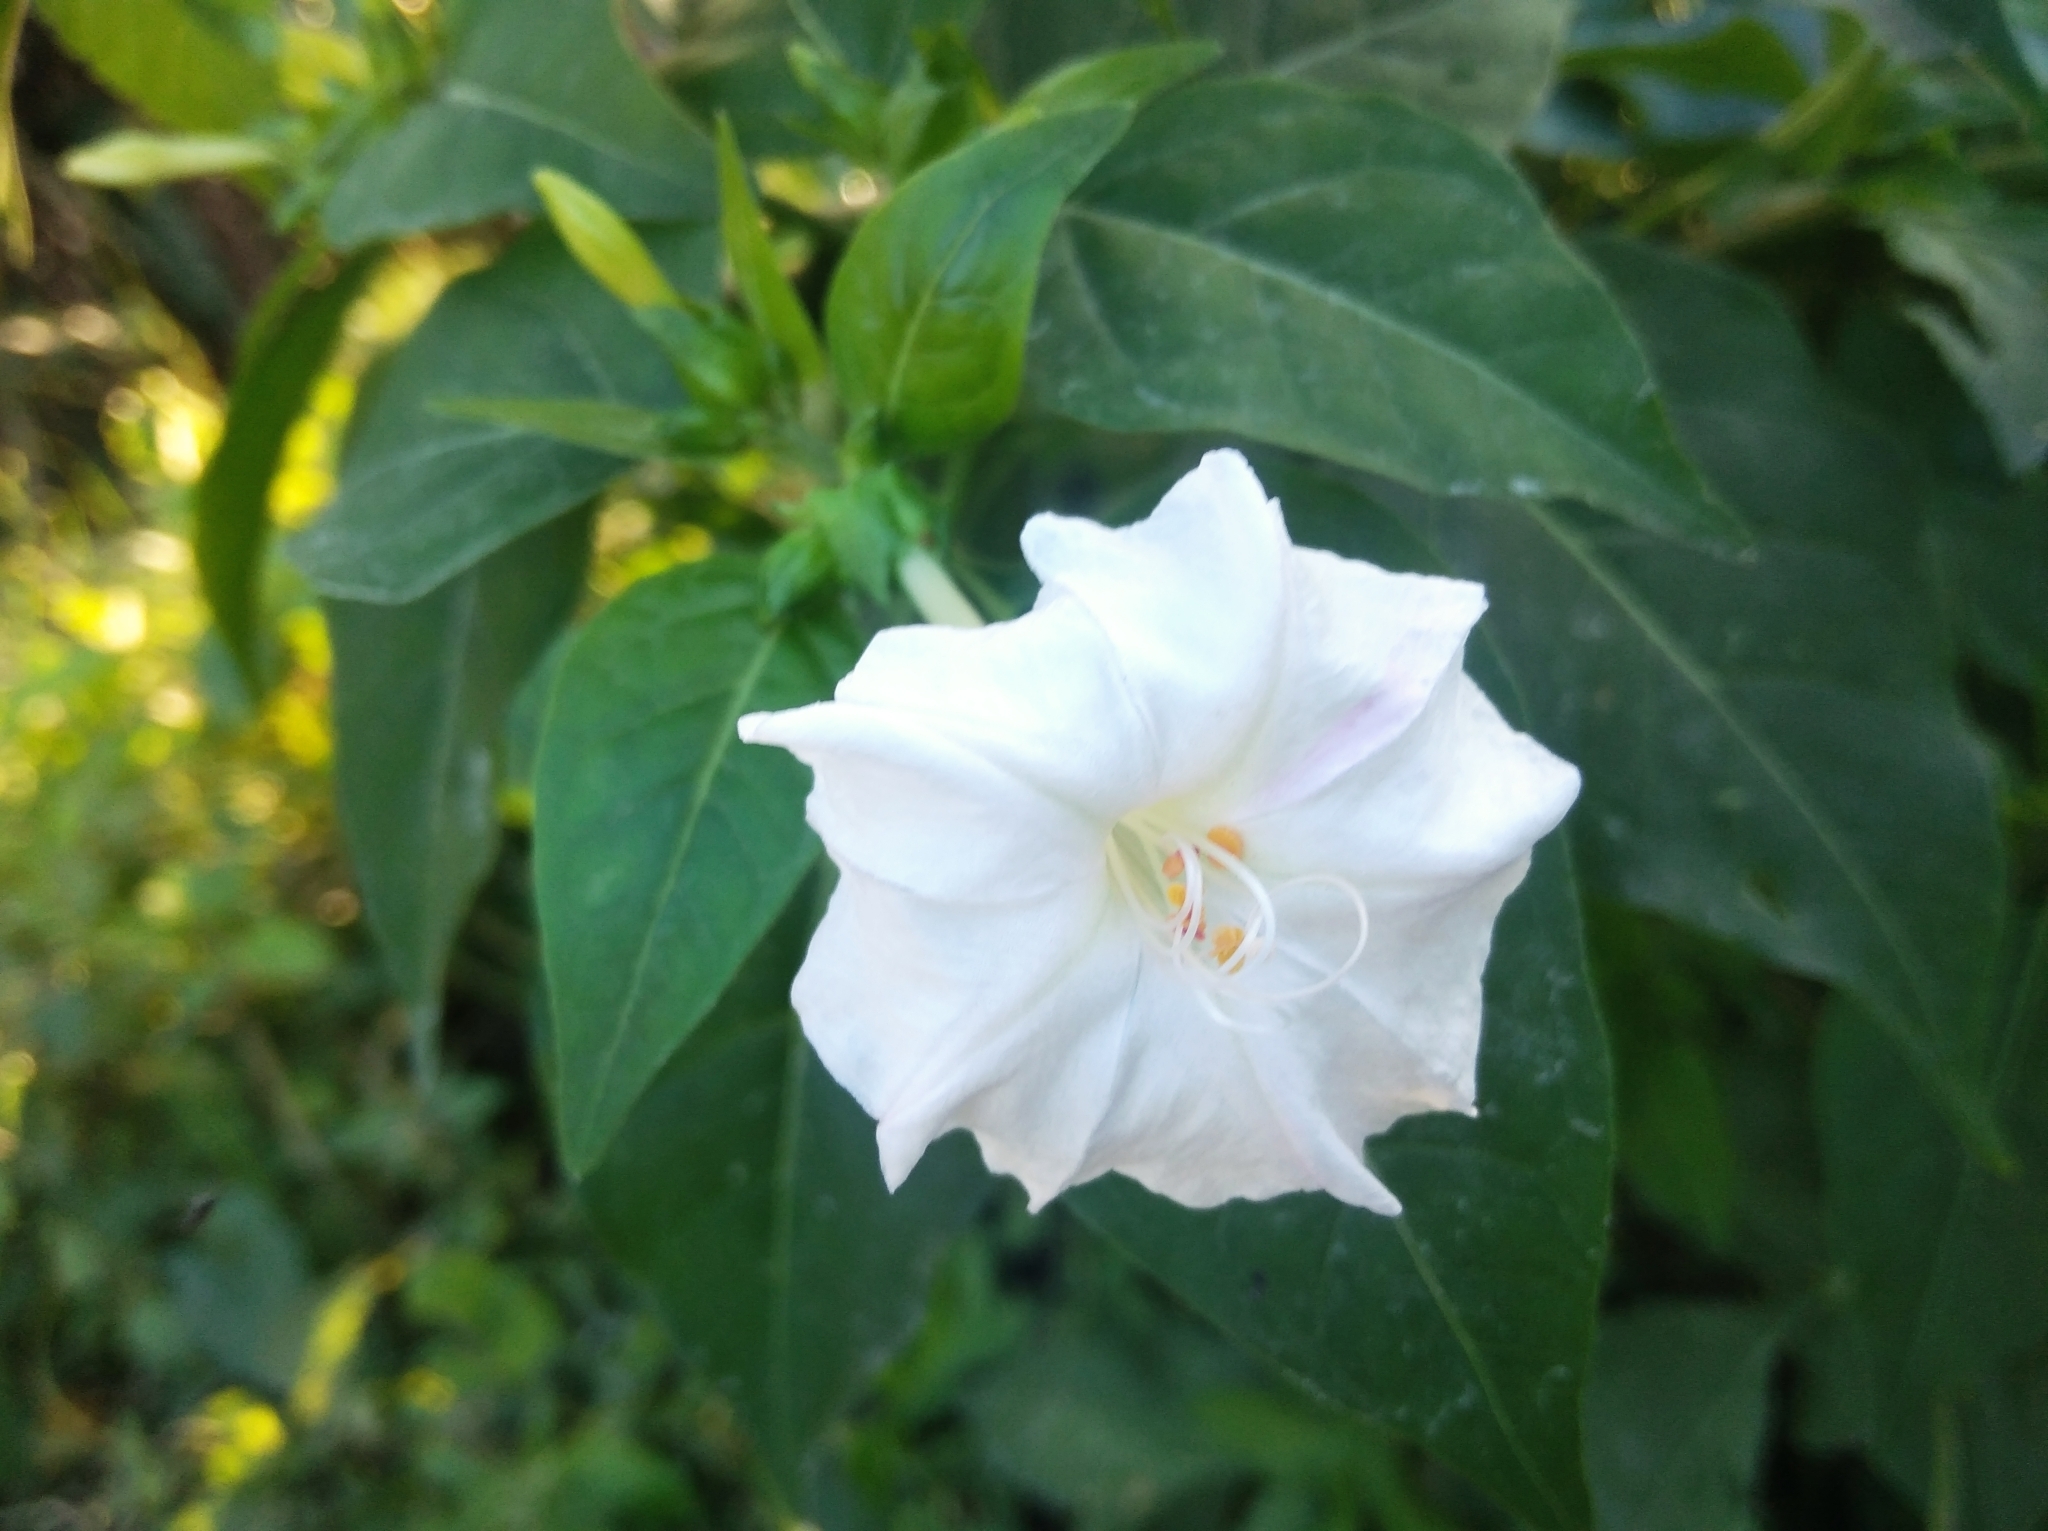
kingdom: Plantae
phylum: Tracheophyta
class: Magnoliopsida
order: Caryophyllales
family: Nyctaginaceae
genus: Mirabilis
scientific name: Mirabilis jalapa
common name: Marvel-of-peru
